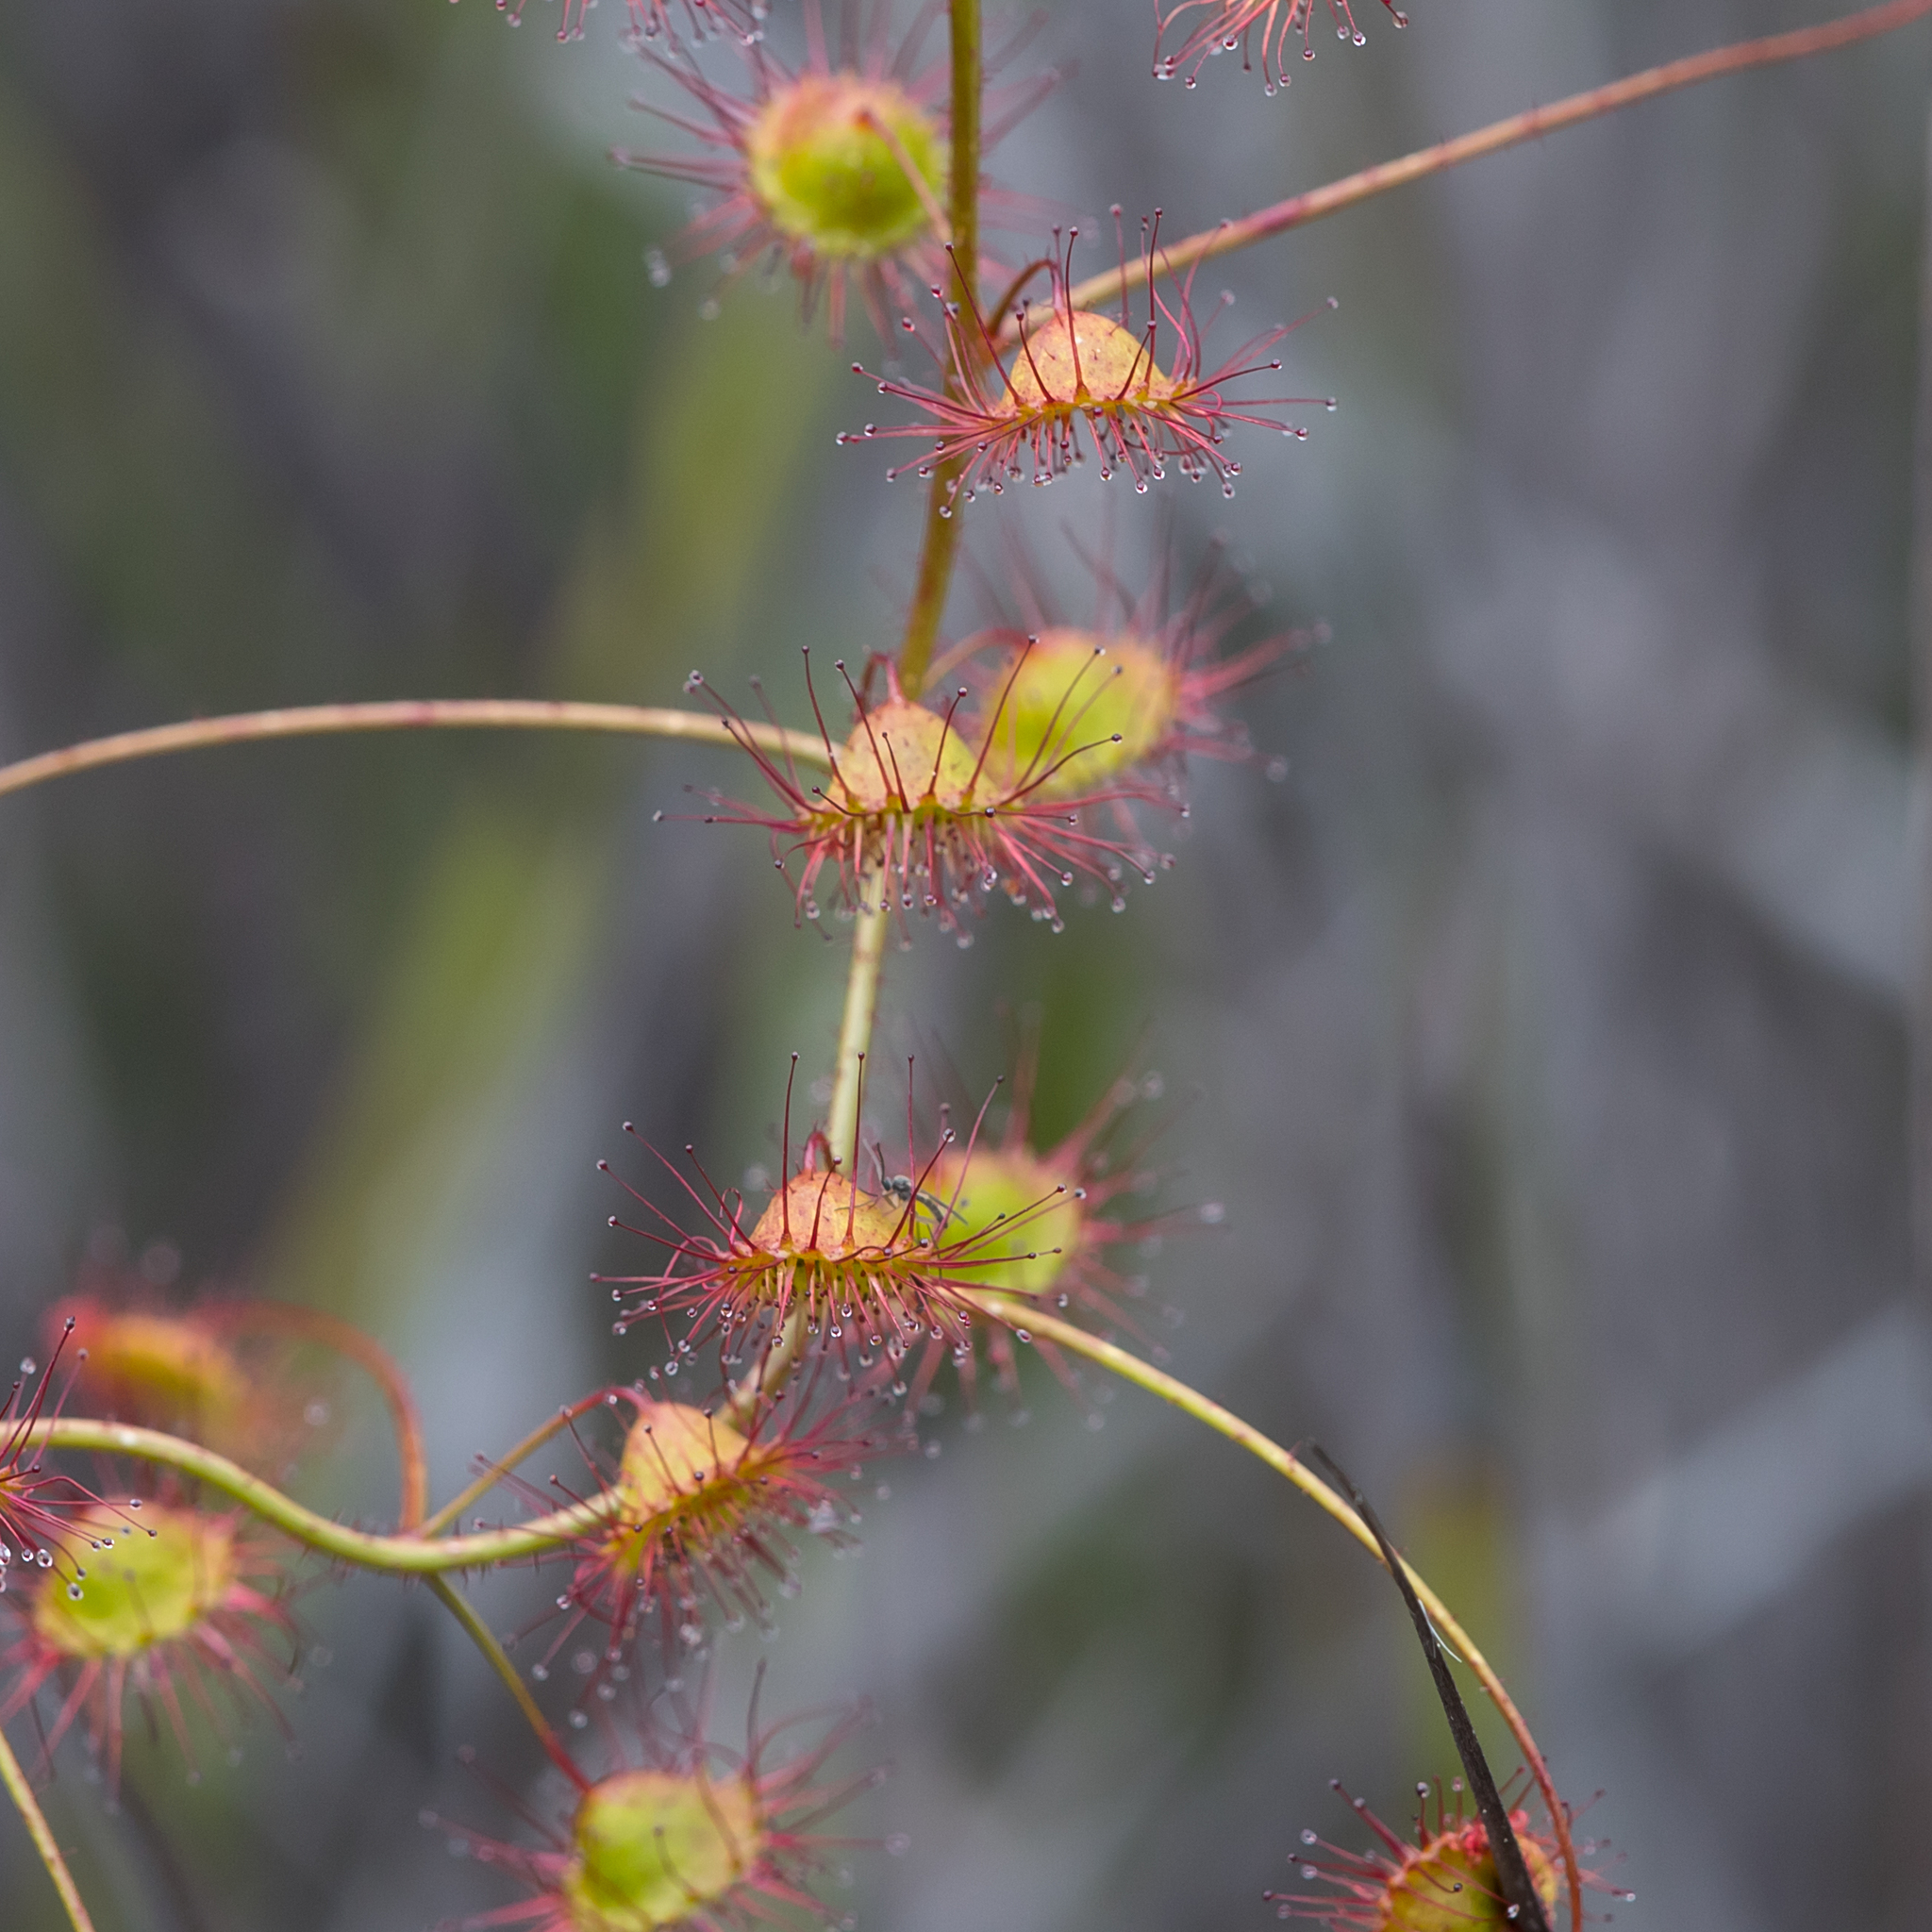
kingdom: Plantae
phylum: Tracheophyta
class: Magnoliopsida
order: Caryophyllales
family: Droseraceae
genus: Drosera
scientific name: Drosera planchonii
